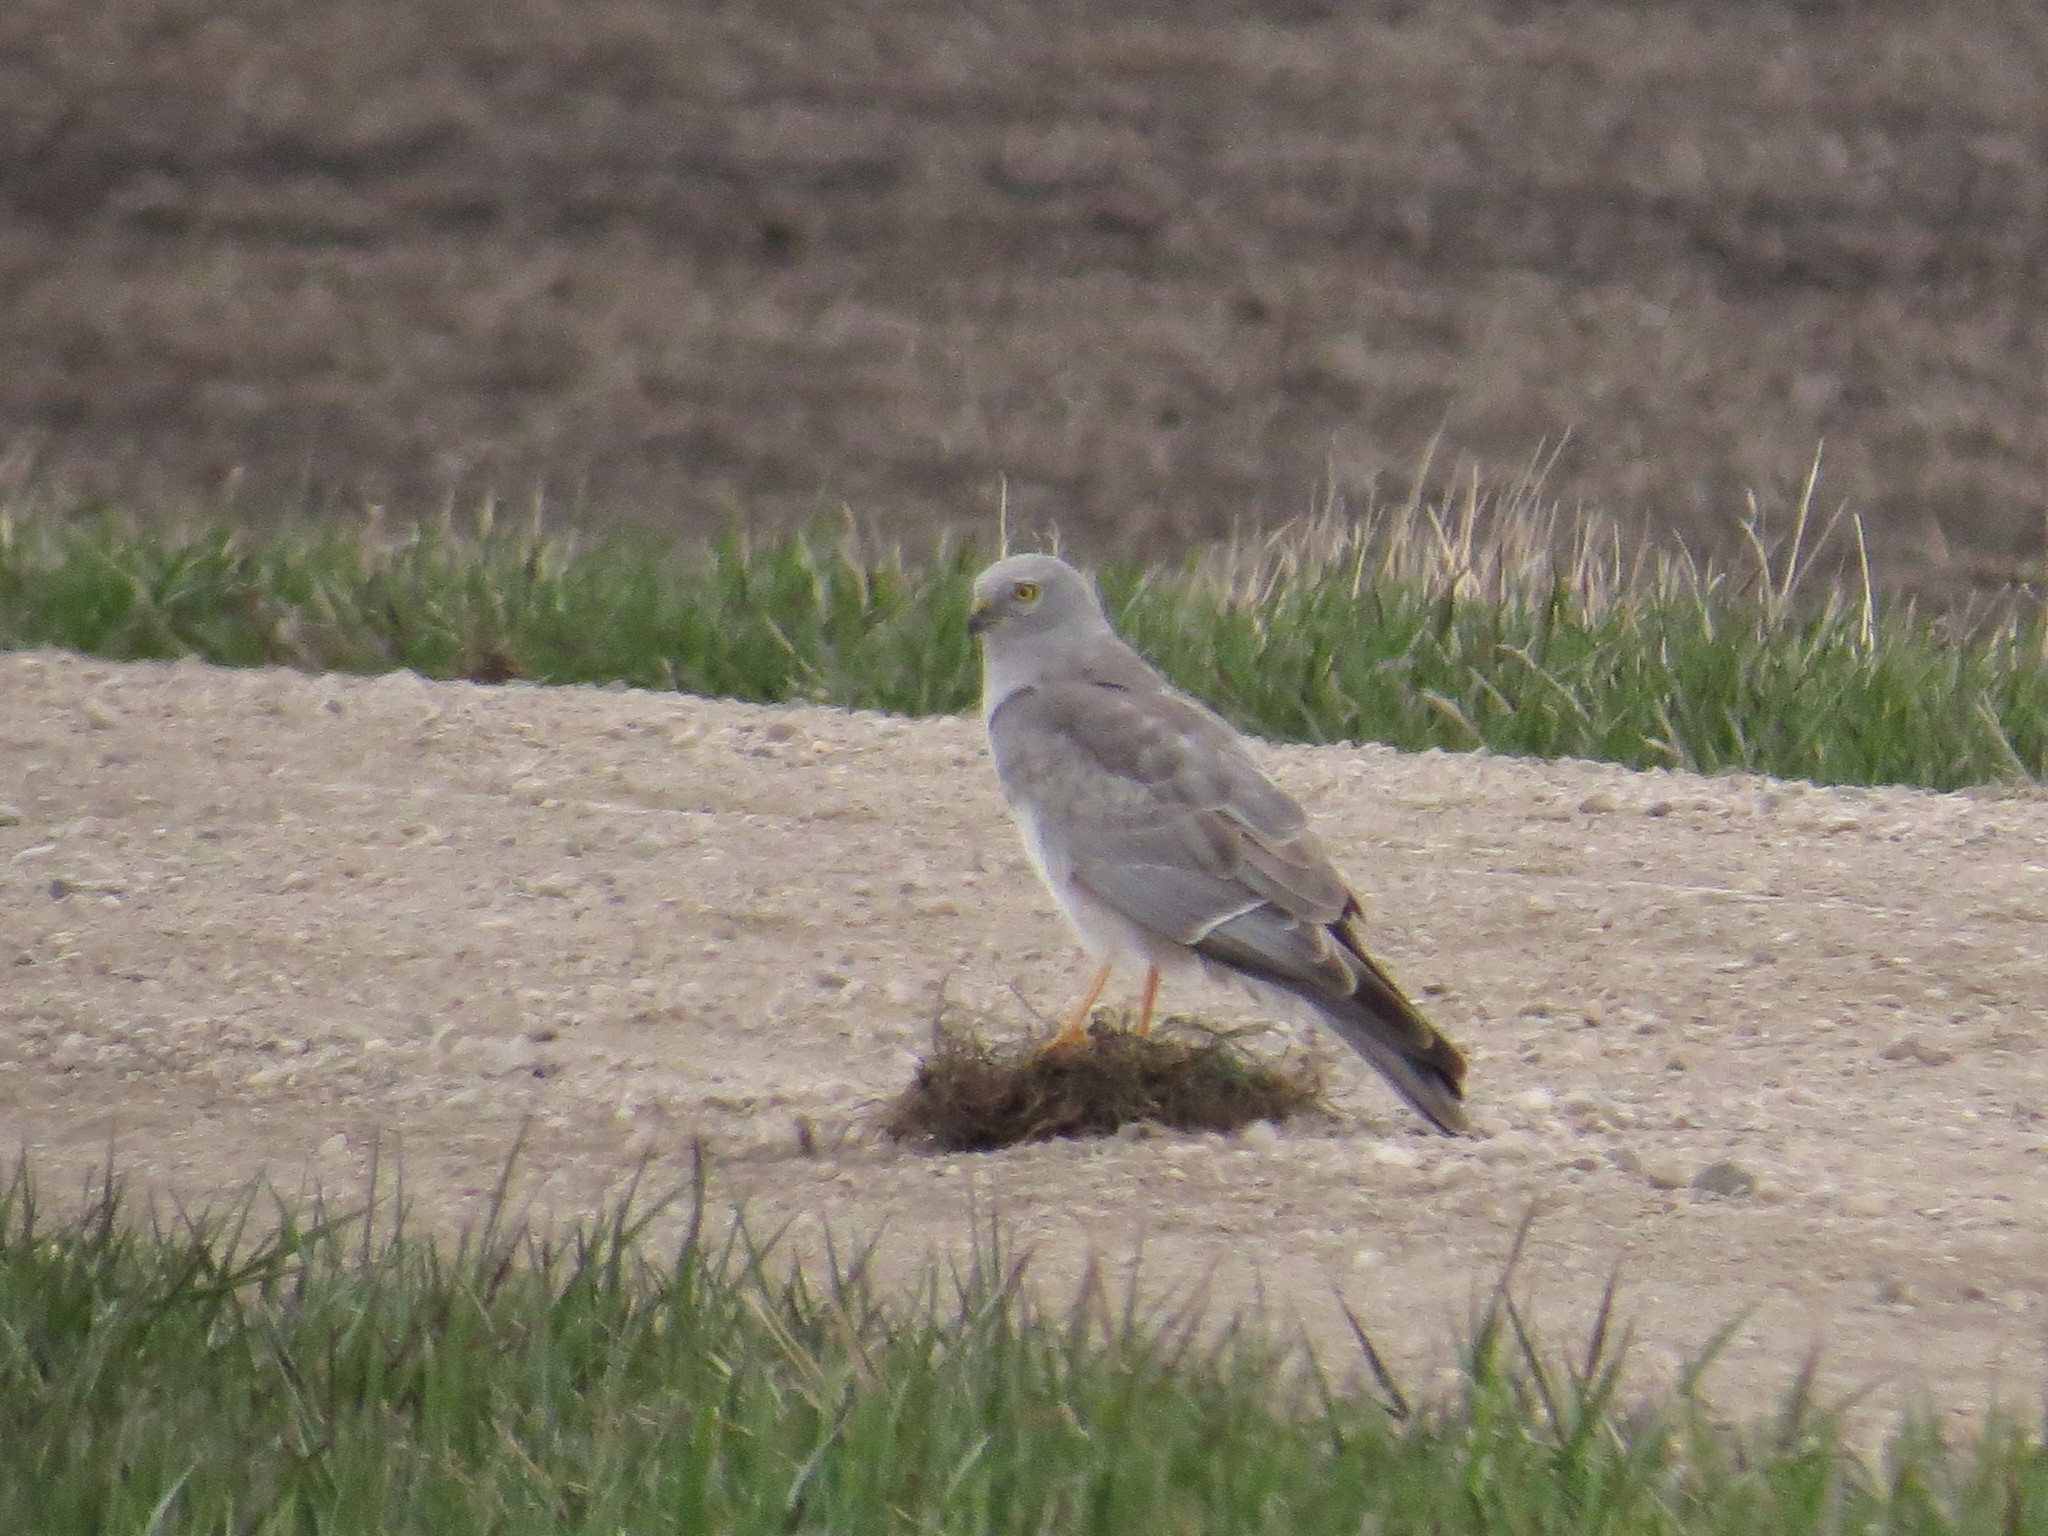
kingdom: Animalia
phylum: Chordata
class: Aves
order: Accipitriformes
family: Accipitridae
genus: Circus
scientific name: Circus cyaneus
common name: Hen harrier
